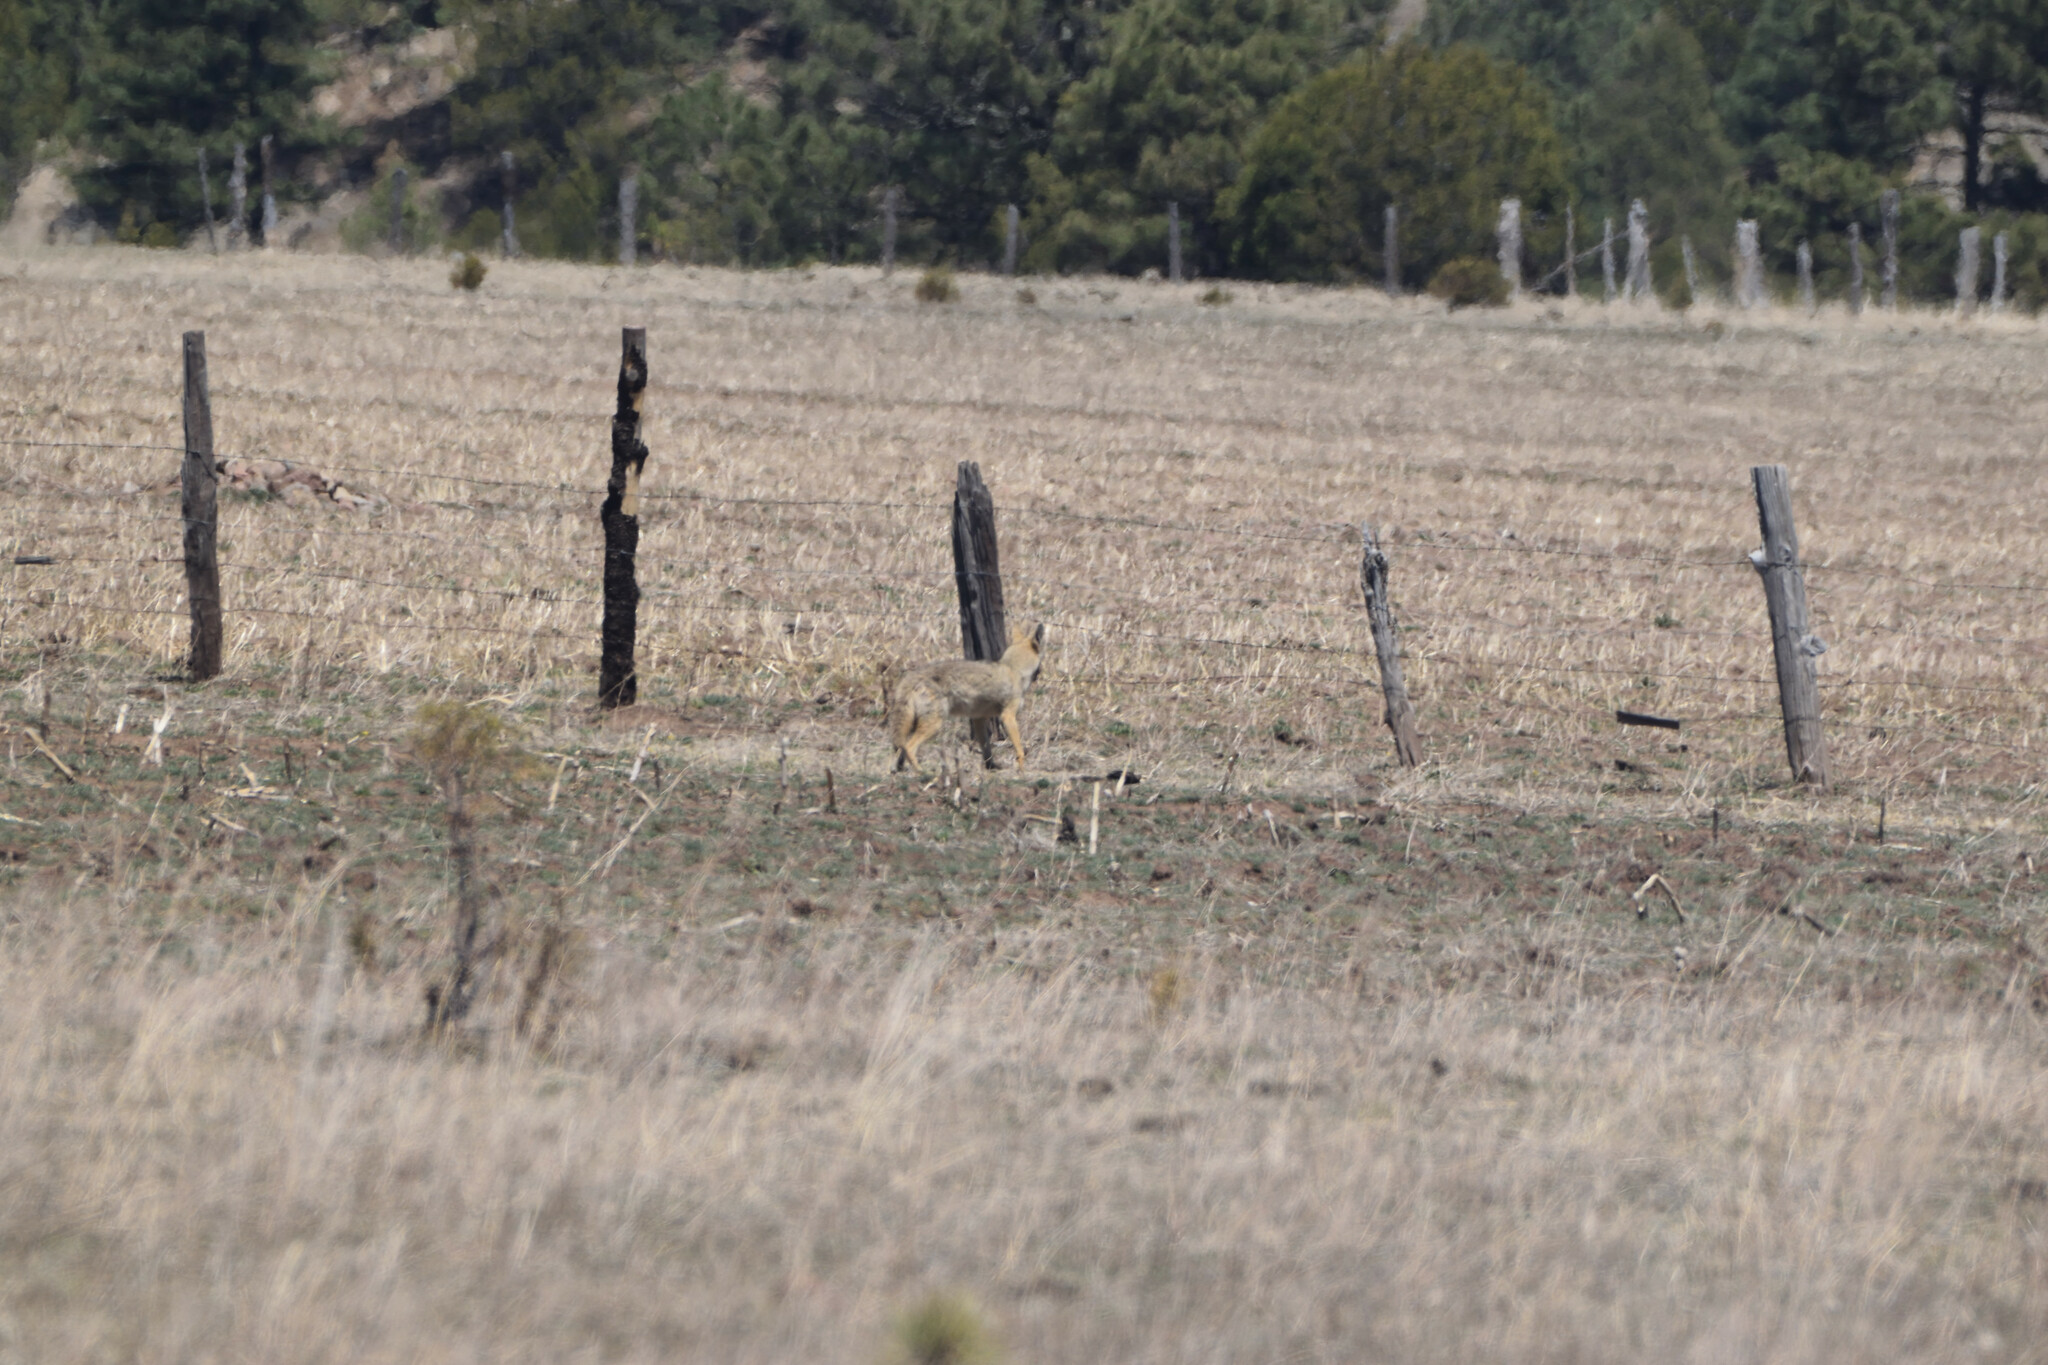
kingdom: Animalia
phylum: Chordata
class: Mammalia
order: Carnivora
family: Canidae
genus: Canis
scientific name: Canis latrans
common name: Coyote
